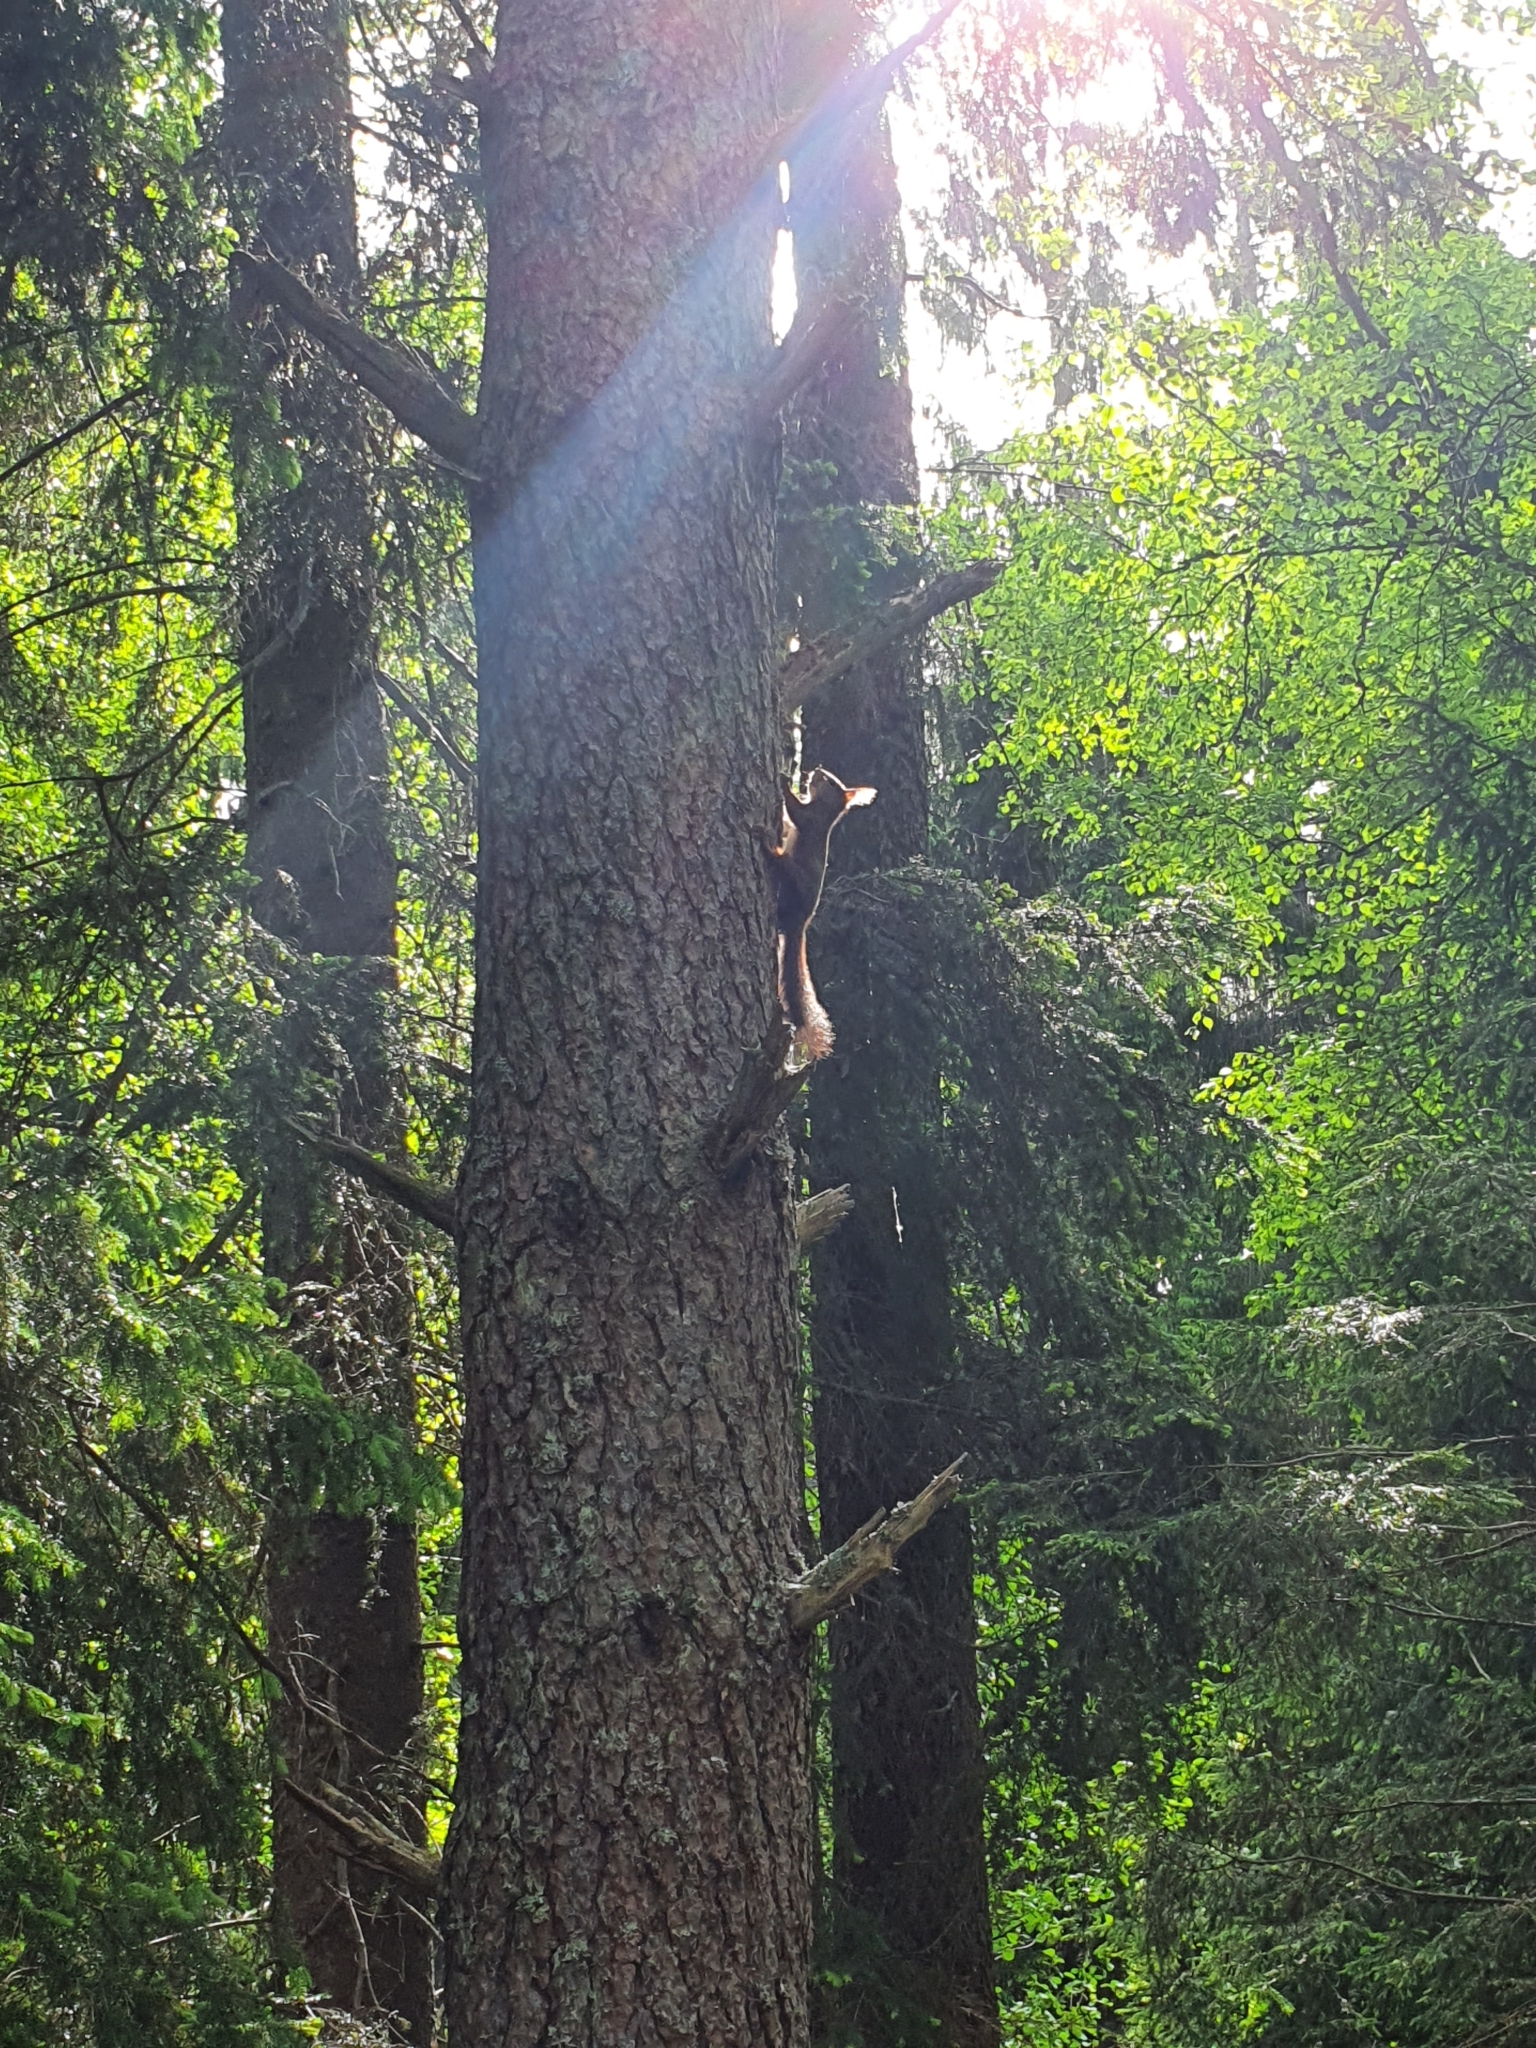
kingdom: Animalia
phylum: Chordata
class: Mammalia
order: Rodentia
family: Sciuridae
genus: Sciurus
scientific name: Sciurus vulgaris
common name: Eurasian red squirrel
